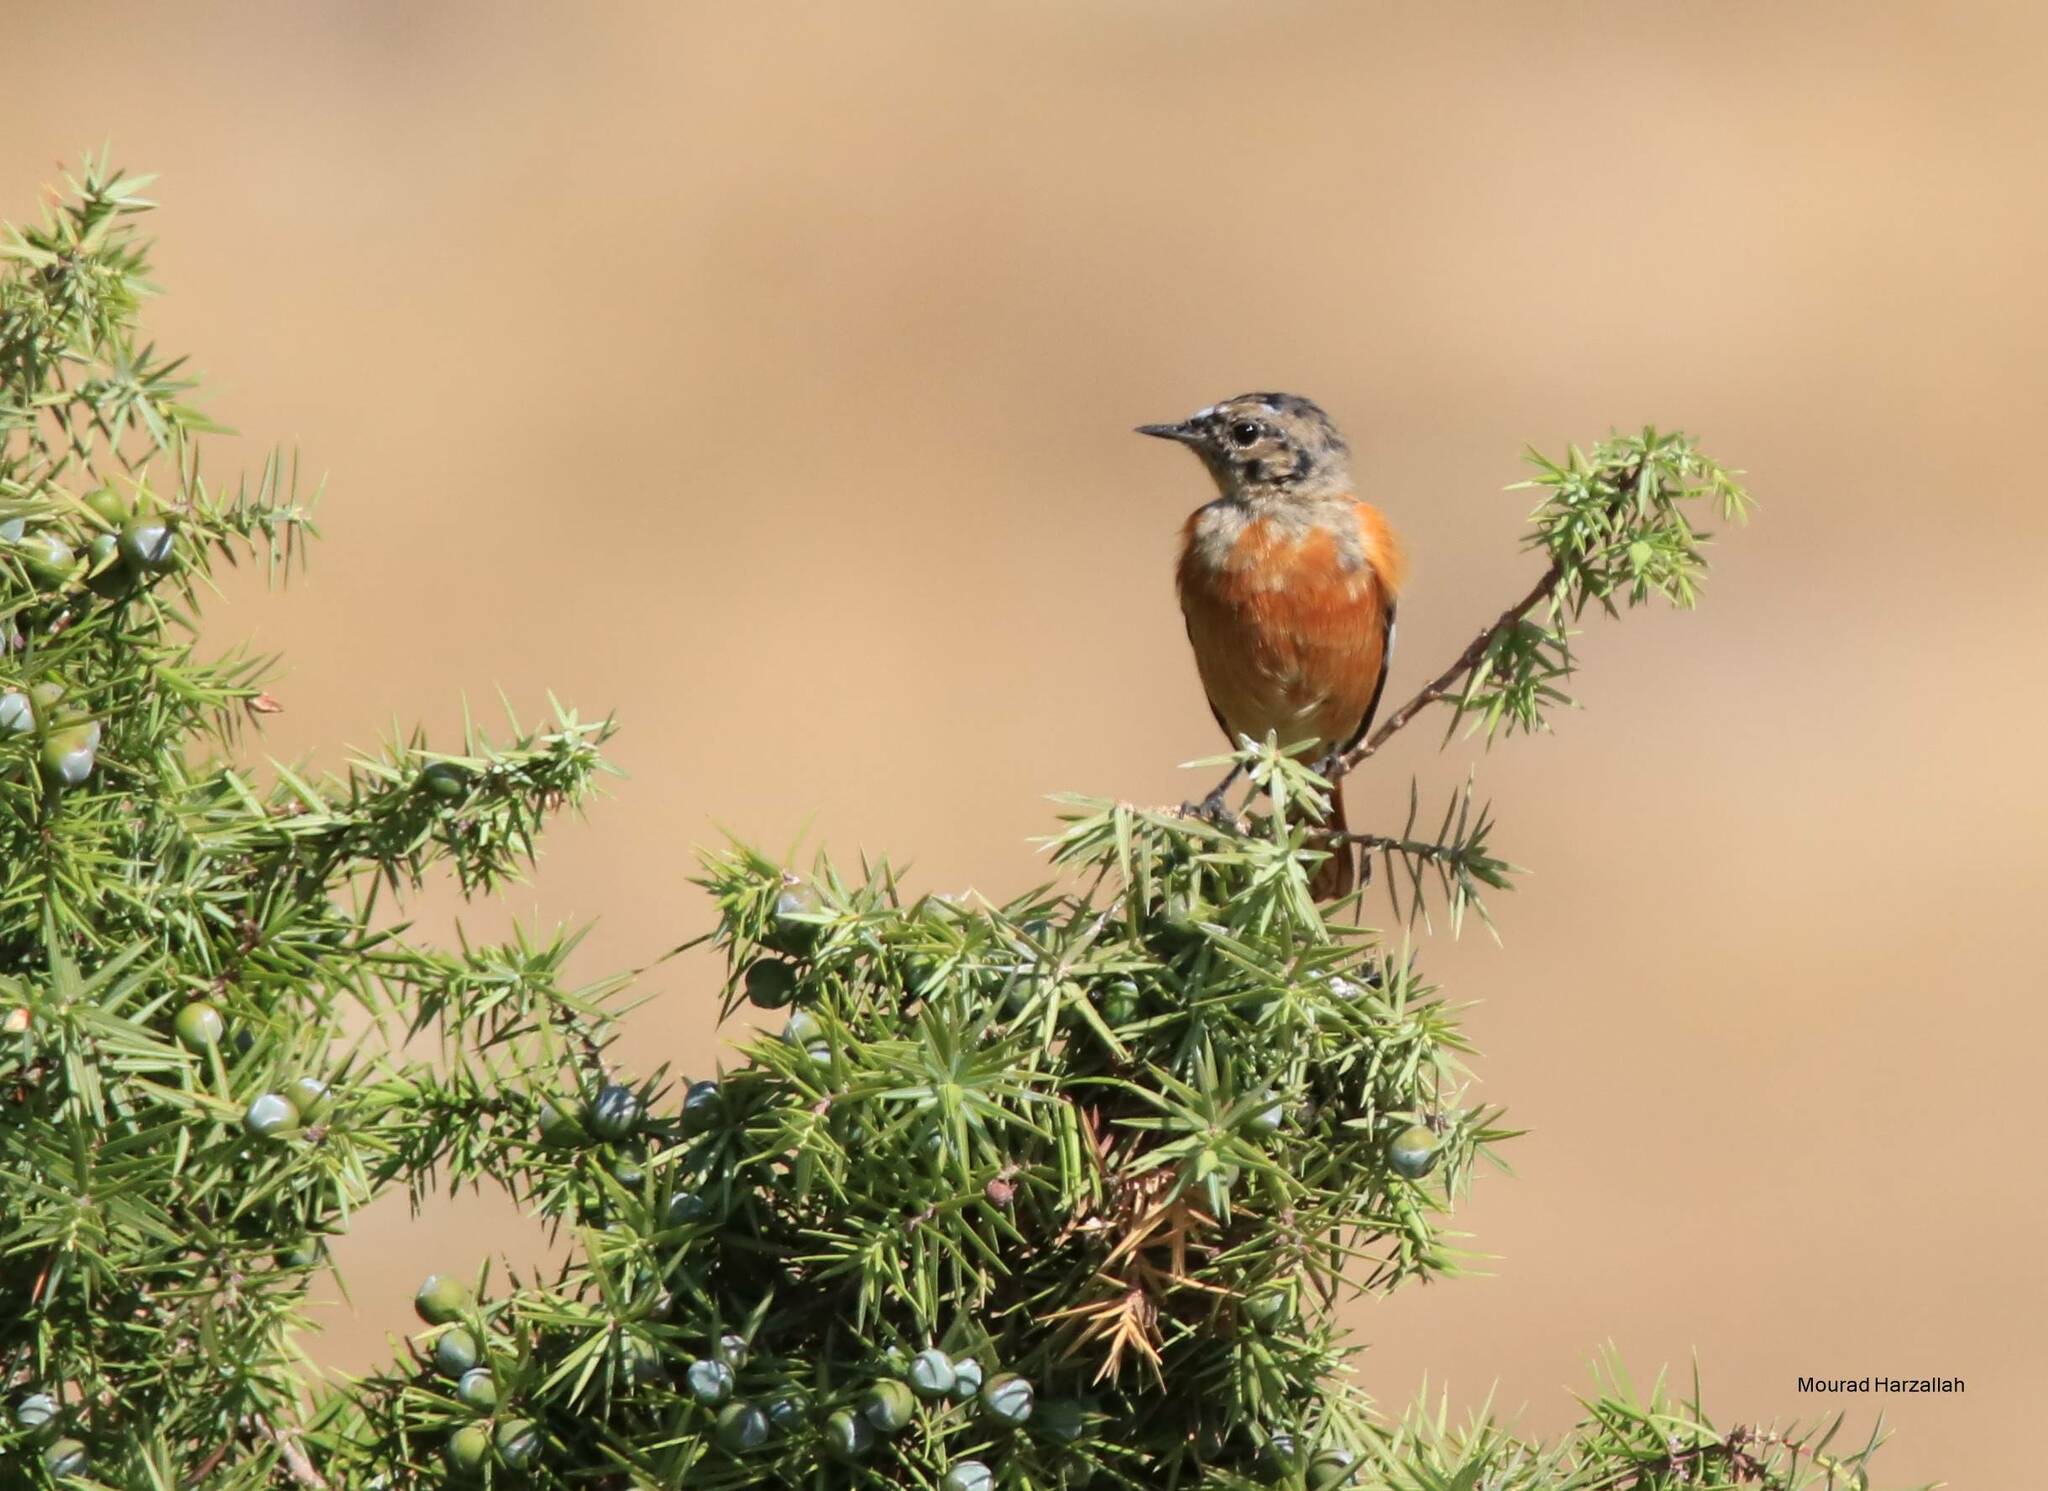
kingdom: Animalia
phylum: Chordata
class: Aves
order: Passeriformes
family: Muscicapidae
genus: Phoenicurus
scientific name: Phoenicurus moussieri
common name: Moussier's redstart
